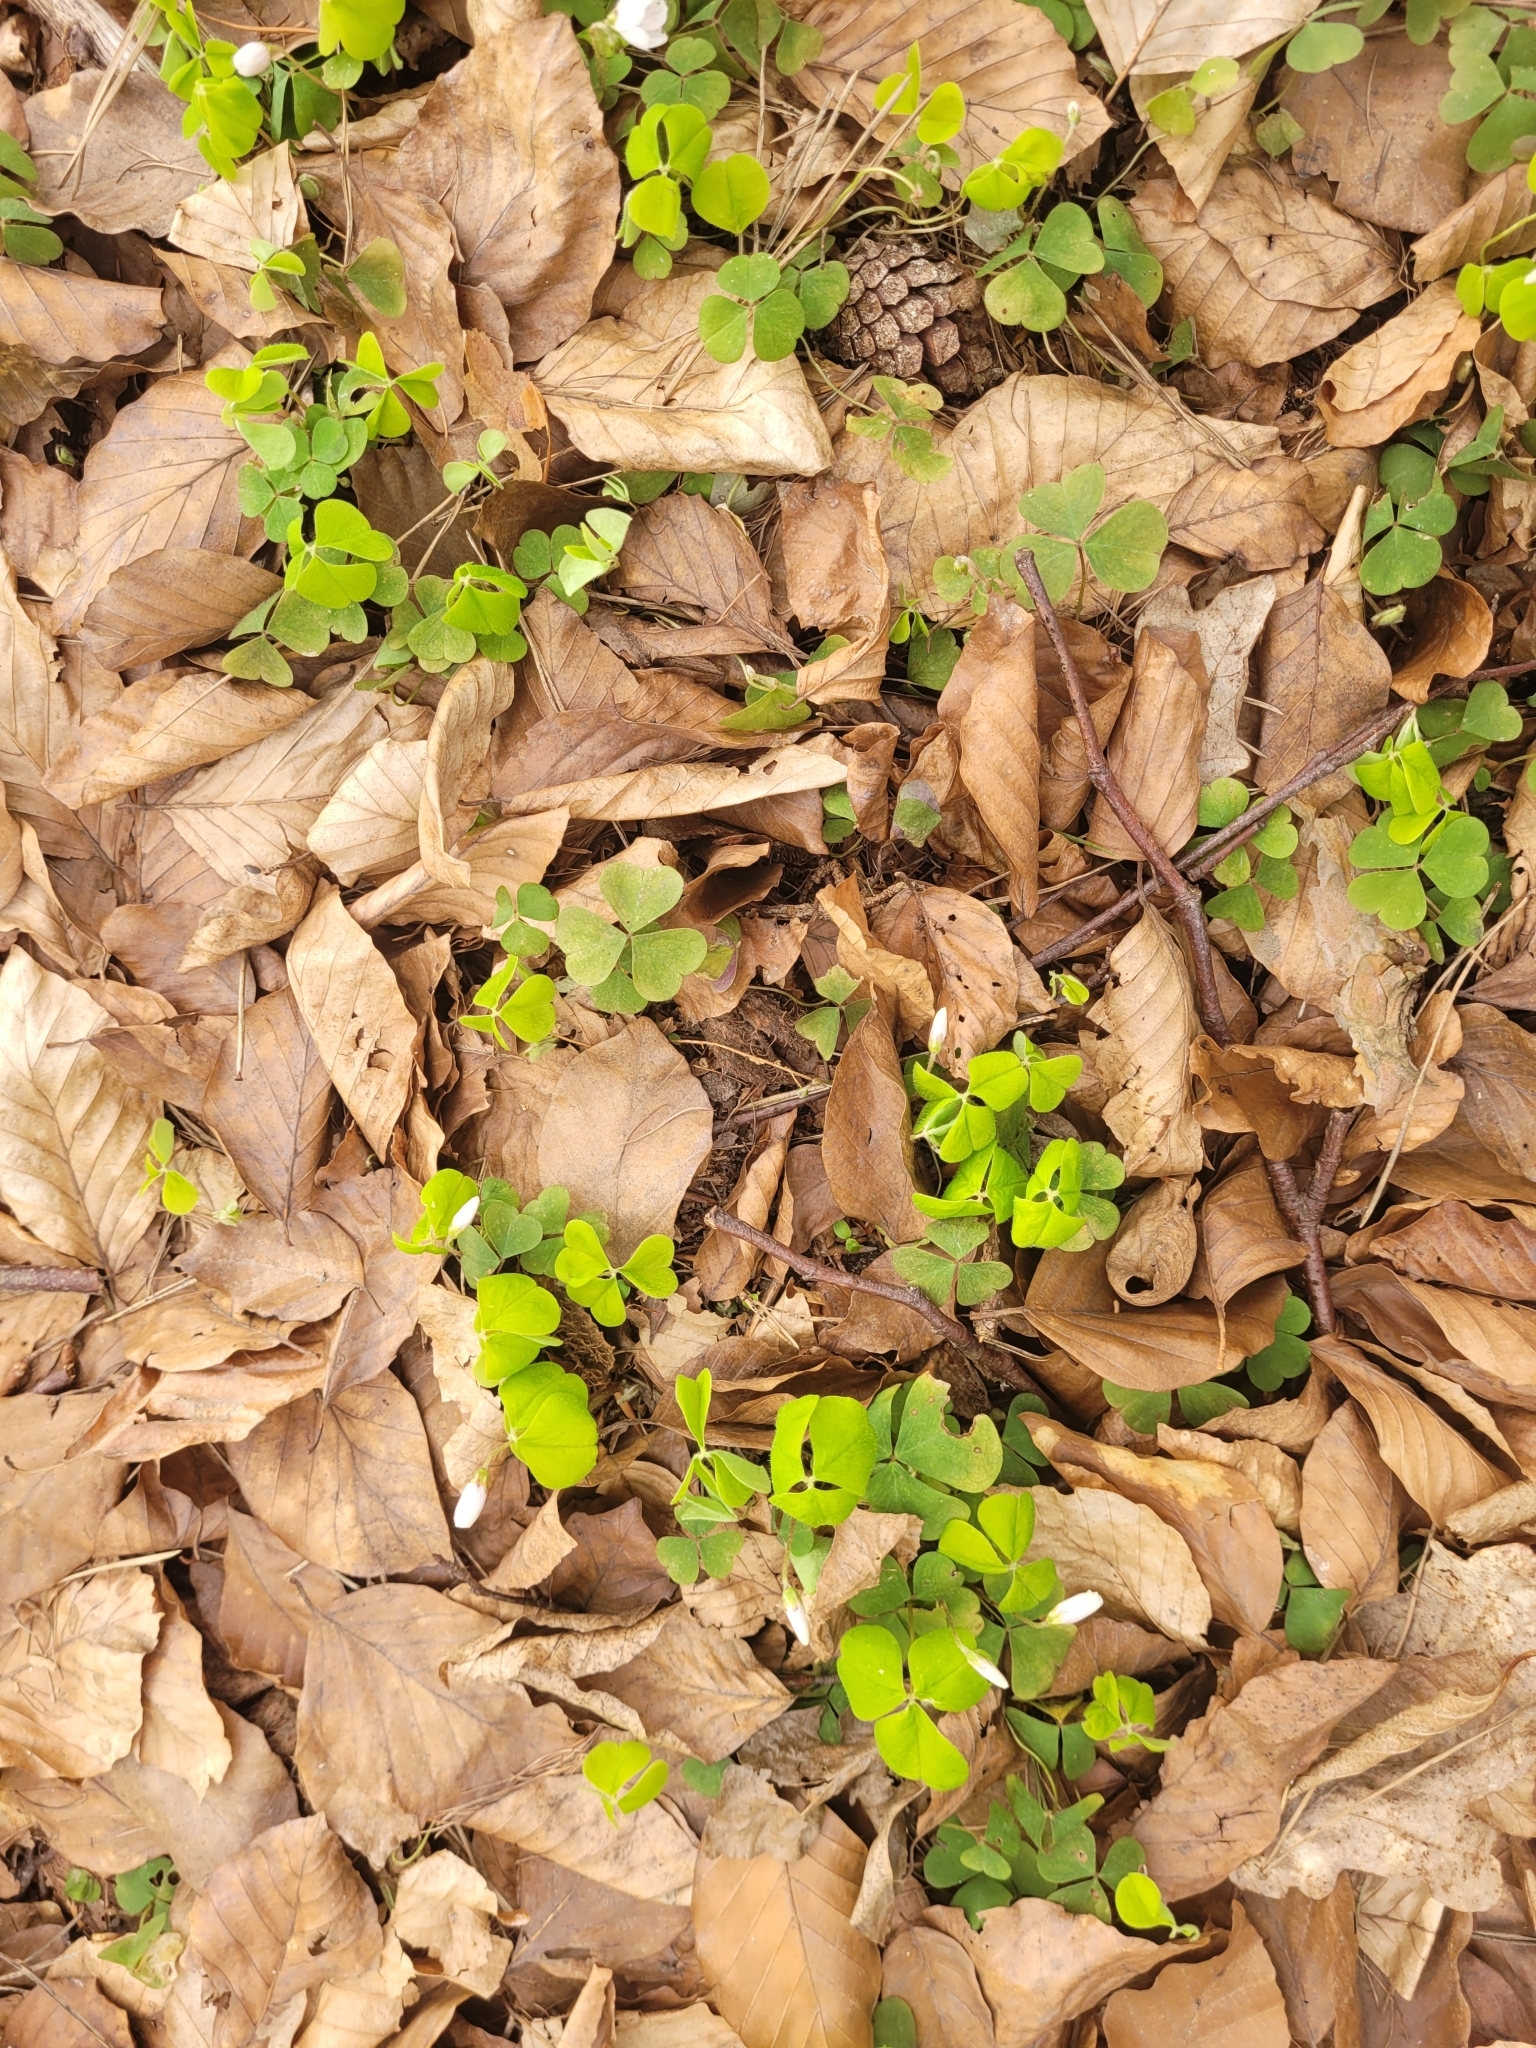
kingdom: Plantae
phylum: Tracheophyta
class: Magnoliopsida
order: Oxalidales
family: Oxalidaceae
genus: Oxalis
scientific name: Oxalis acetosella
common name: Wood-sorrel
